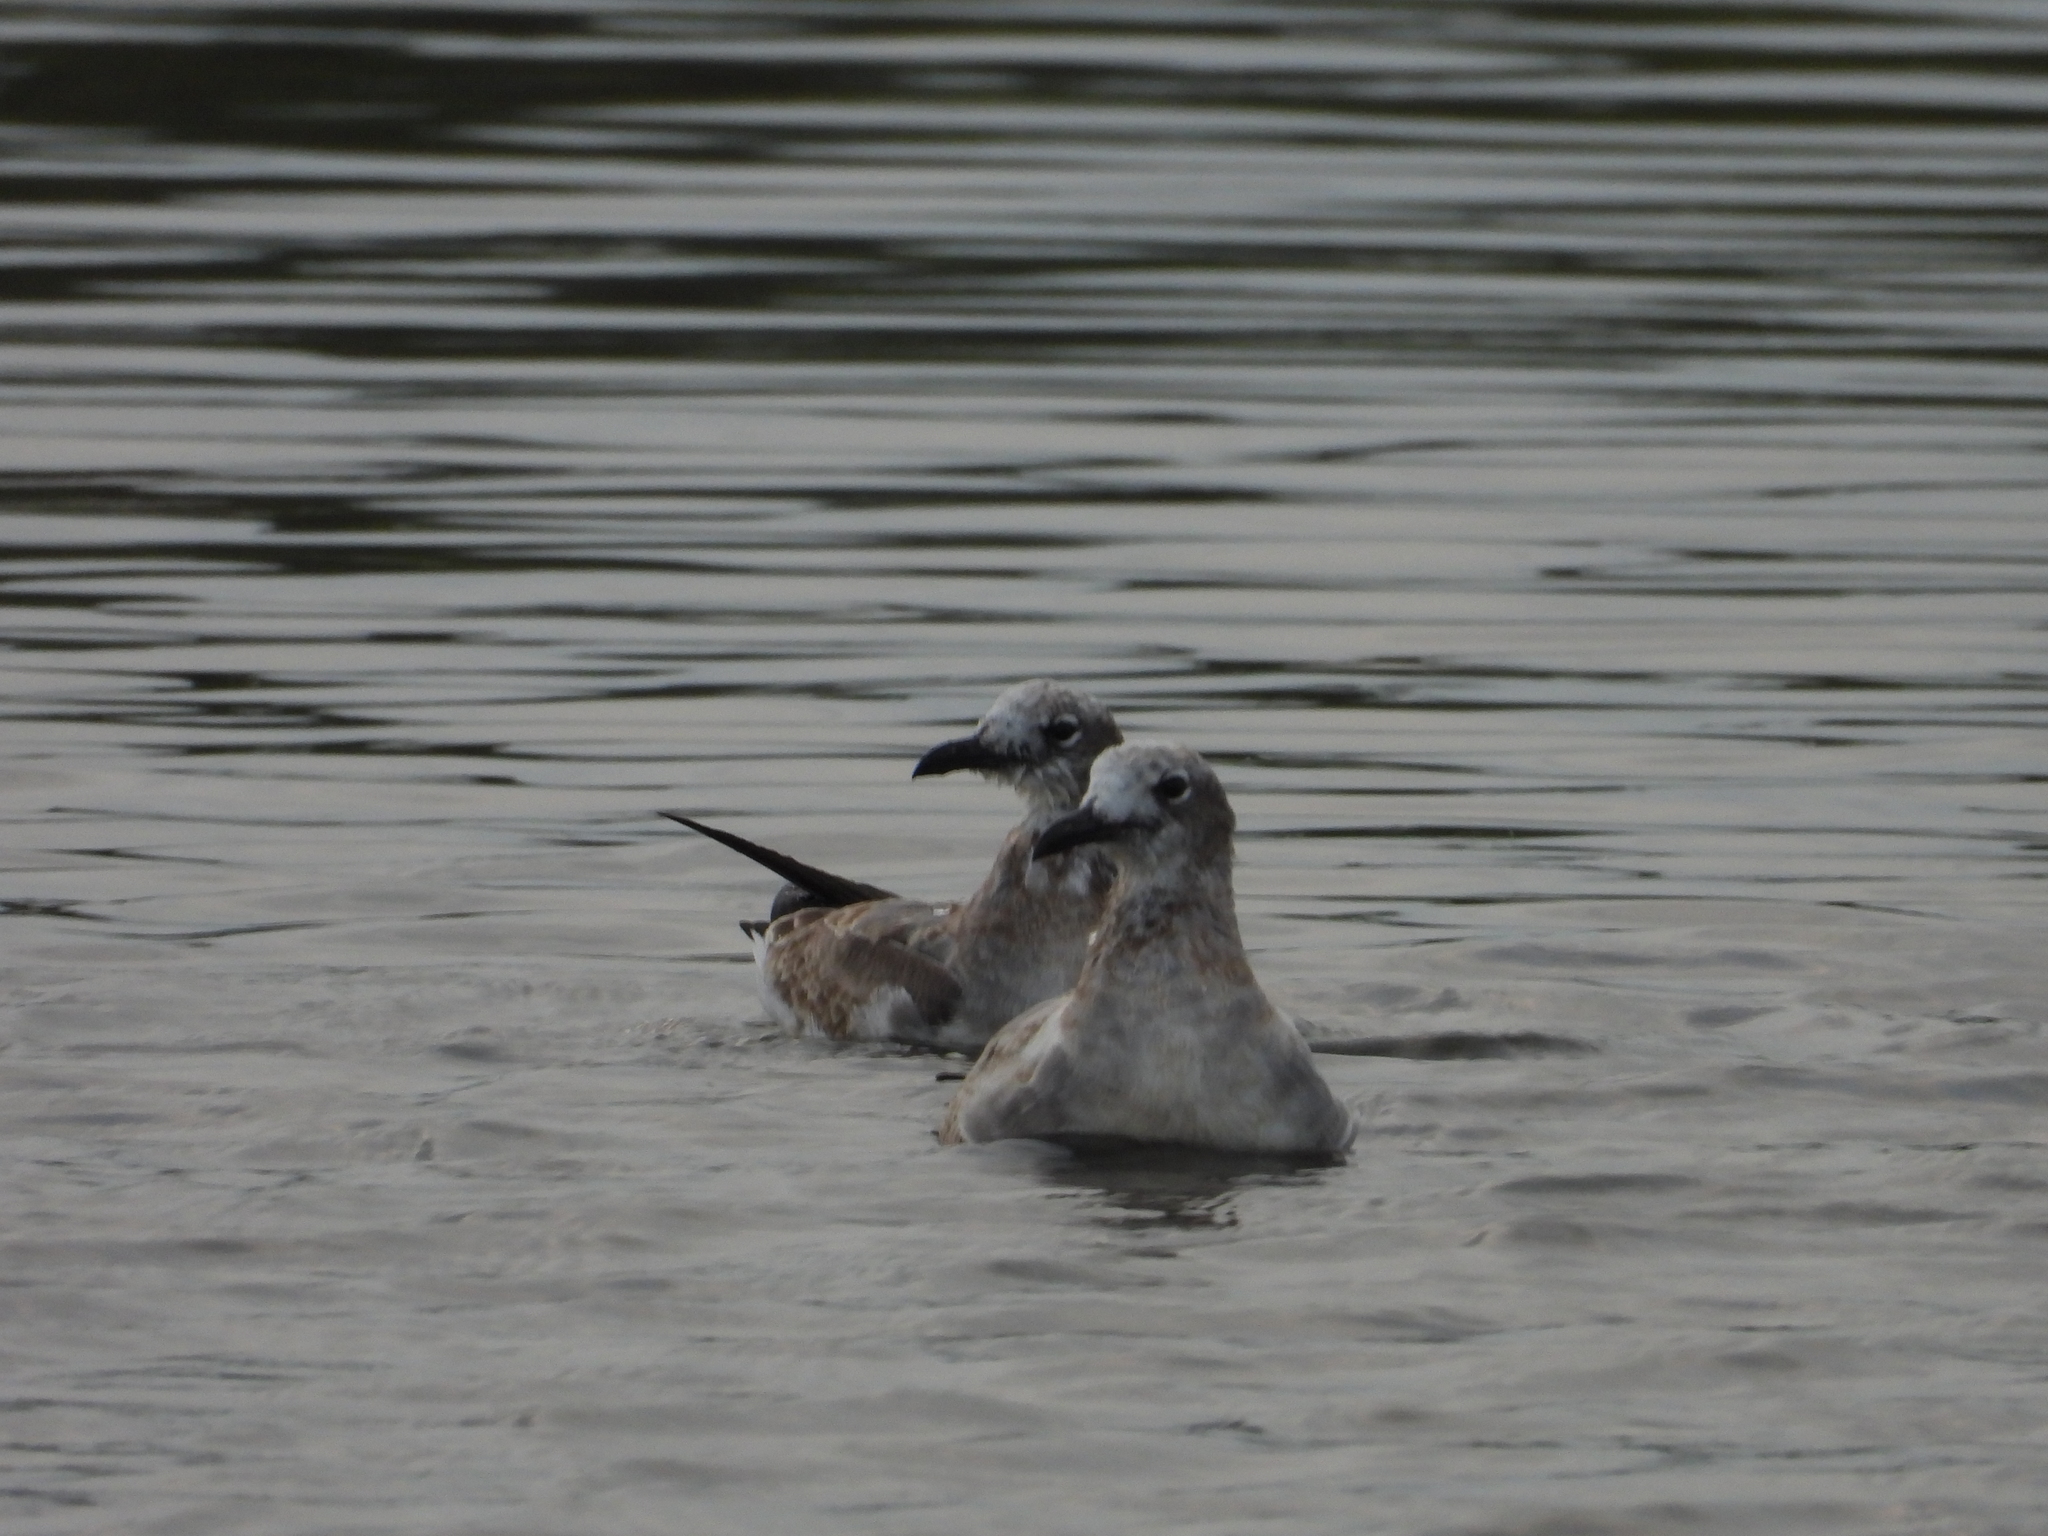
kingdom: Animalia
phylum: Chordata
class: Aves
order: Charadriiformes
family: Laridae
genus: Leucophaeus
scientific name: Leucophaeus atricilla
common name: Laughing gull
